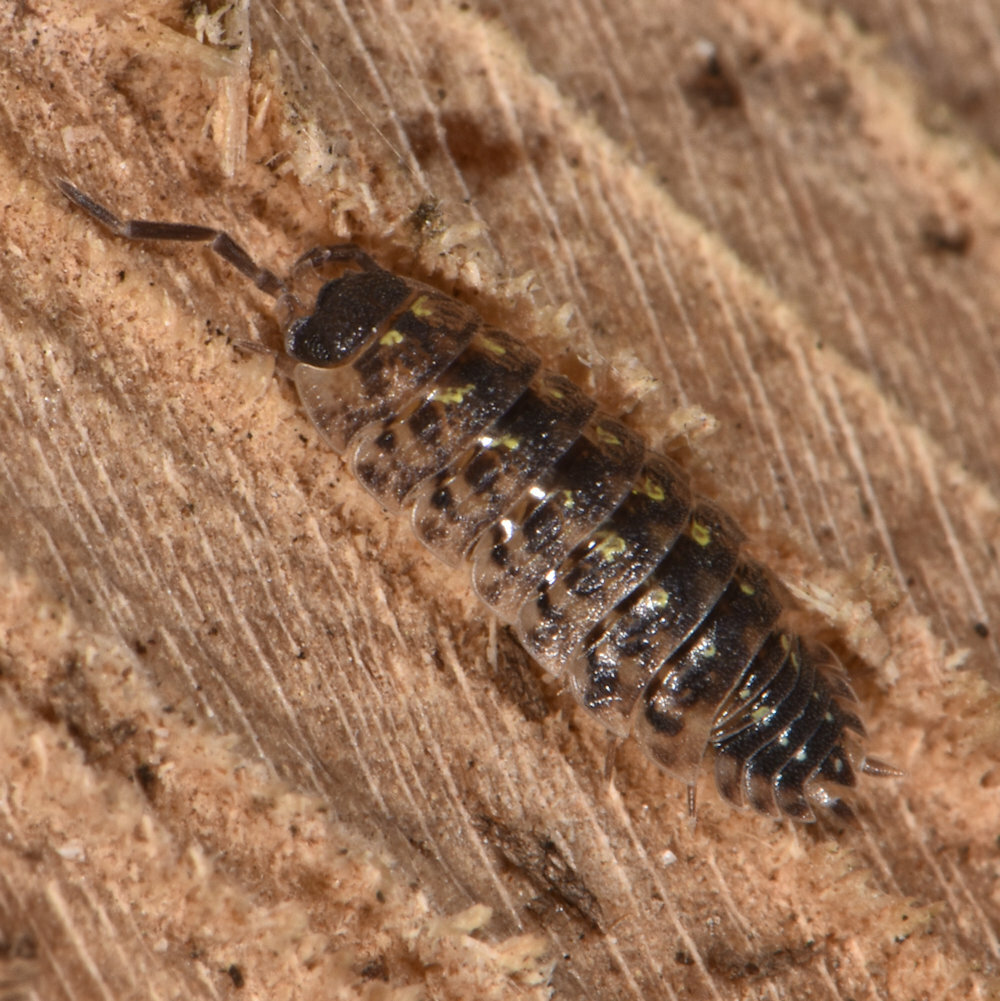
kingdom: Animalia
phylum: Arthropoda
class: Malacostraca
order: Isopoda
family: Porcellionidae
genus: Porcellio
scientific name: Porcellio spinicornis
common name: Painted woodlouse
